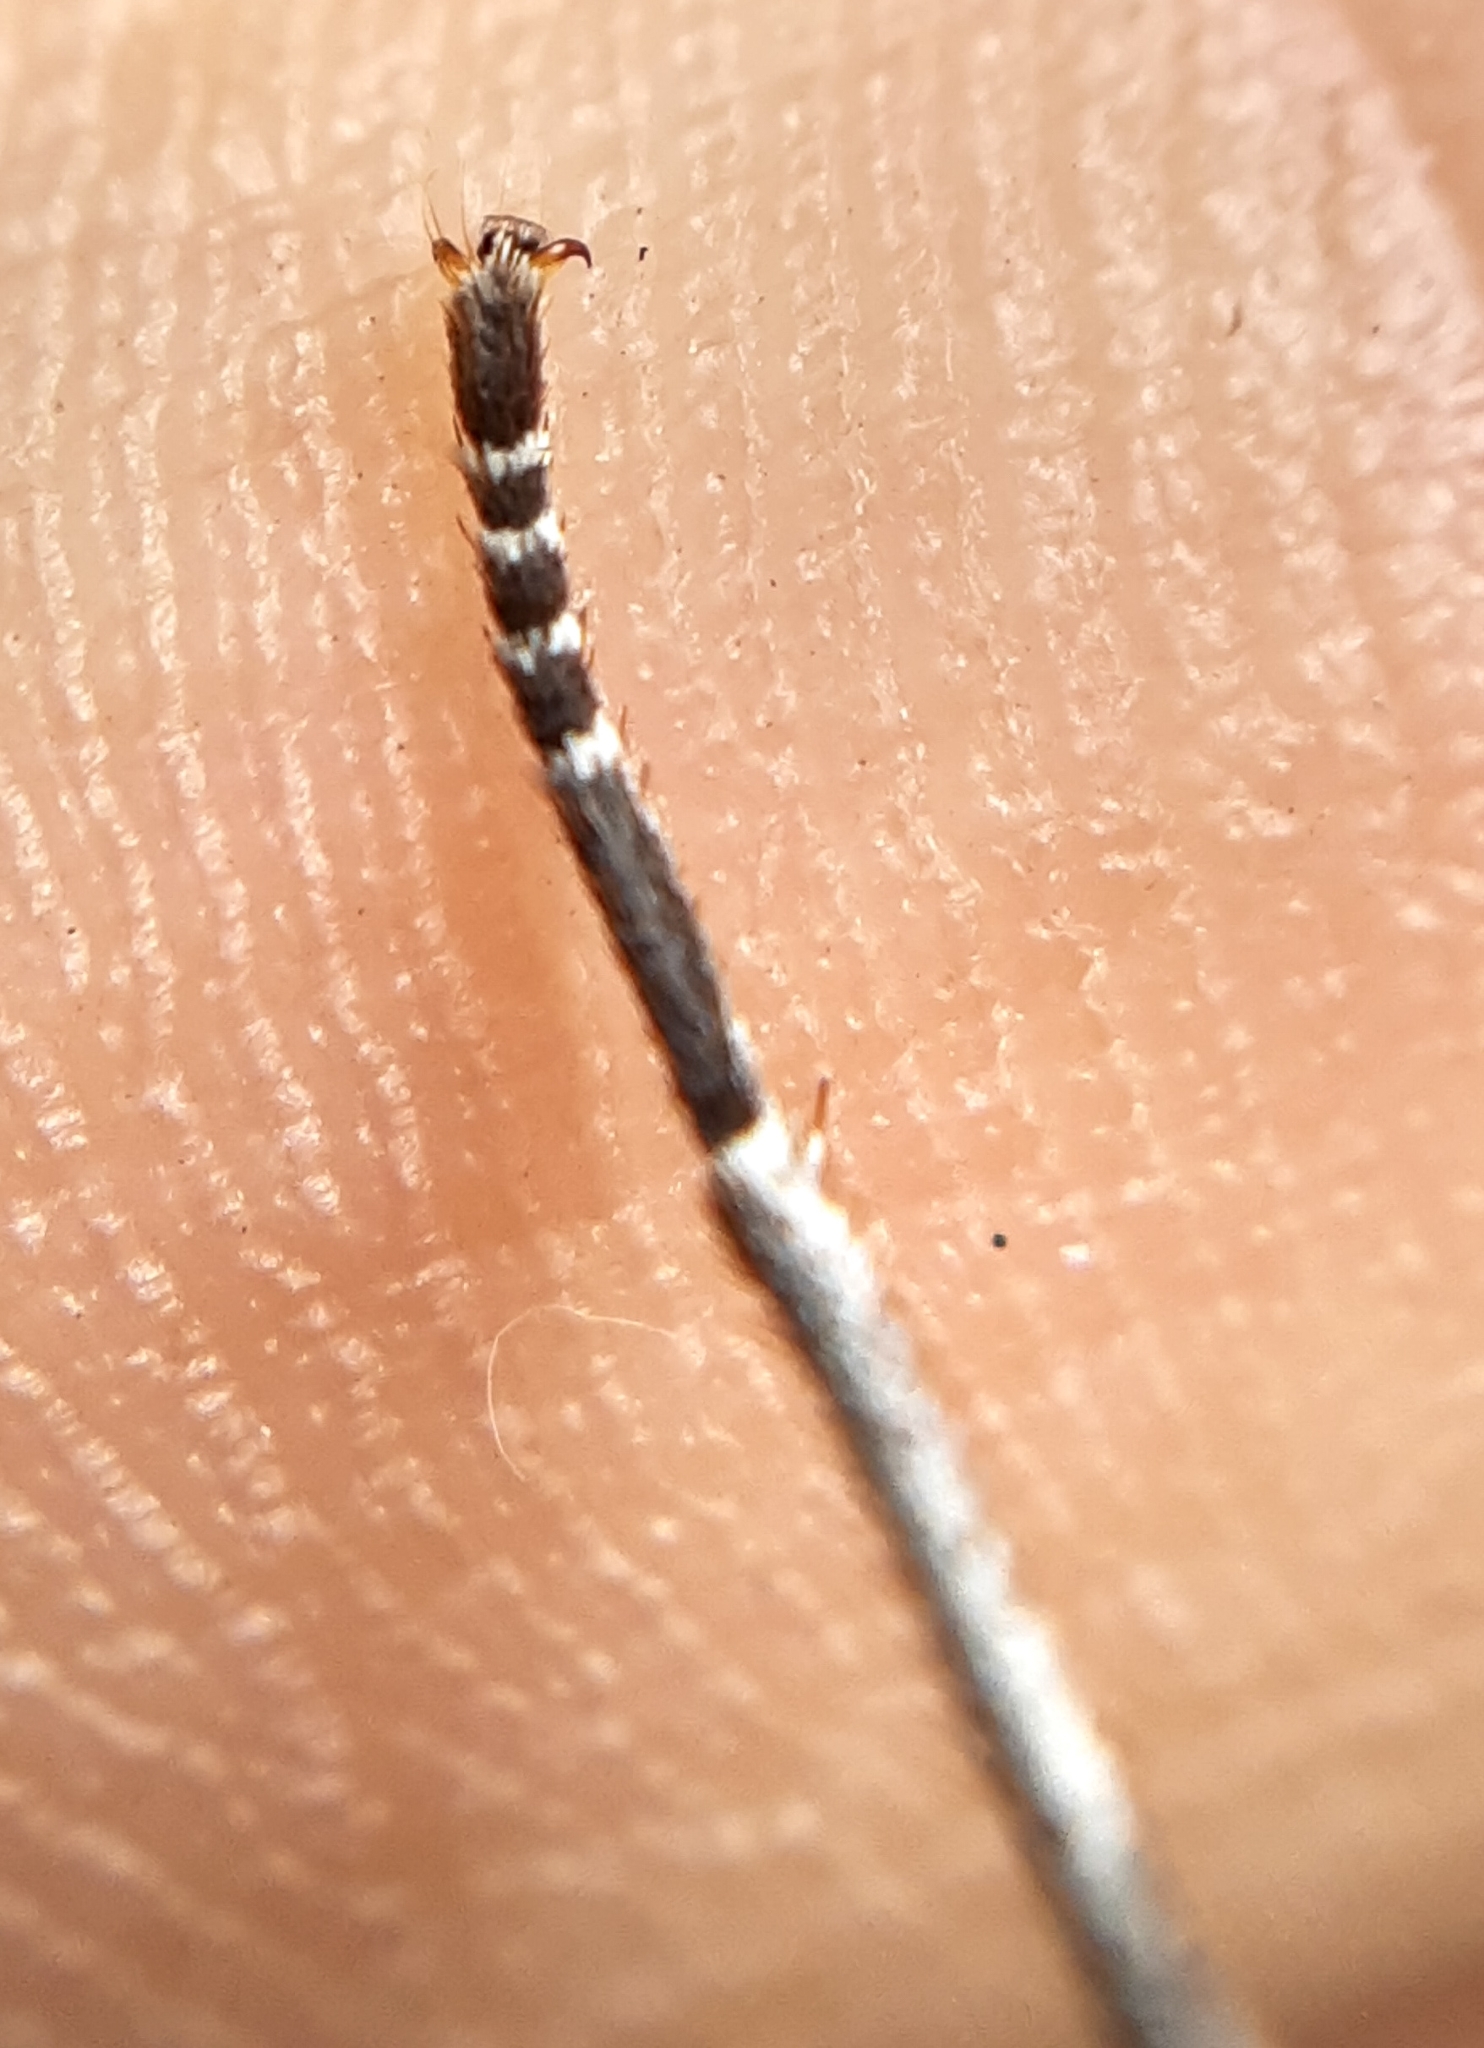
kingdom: Animalia
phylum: Arthropoda
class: Insecta
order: Lepidoptera
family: Nymphalidae
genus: Morpho
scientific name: Morpho epistrophus
